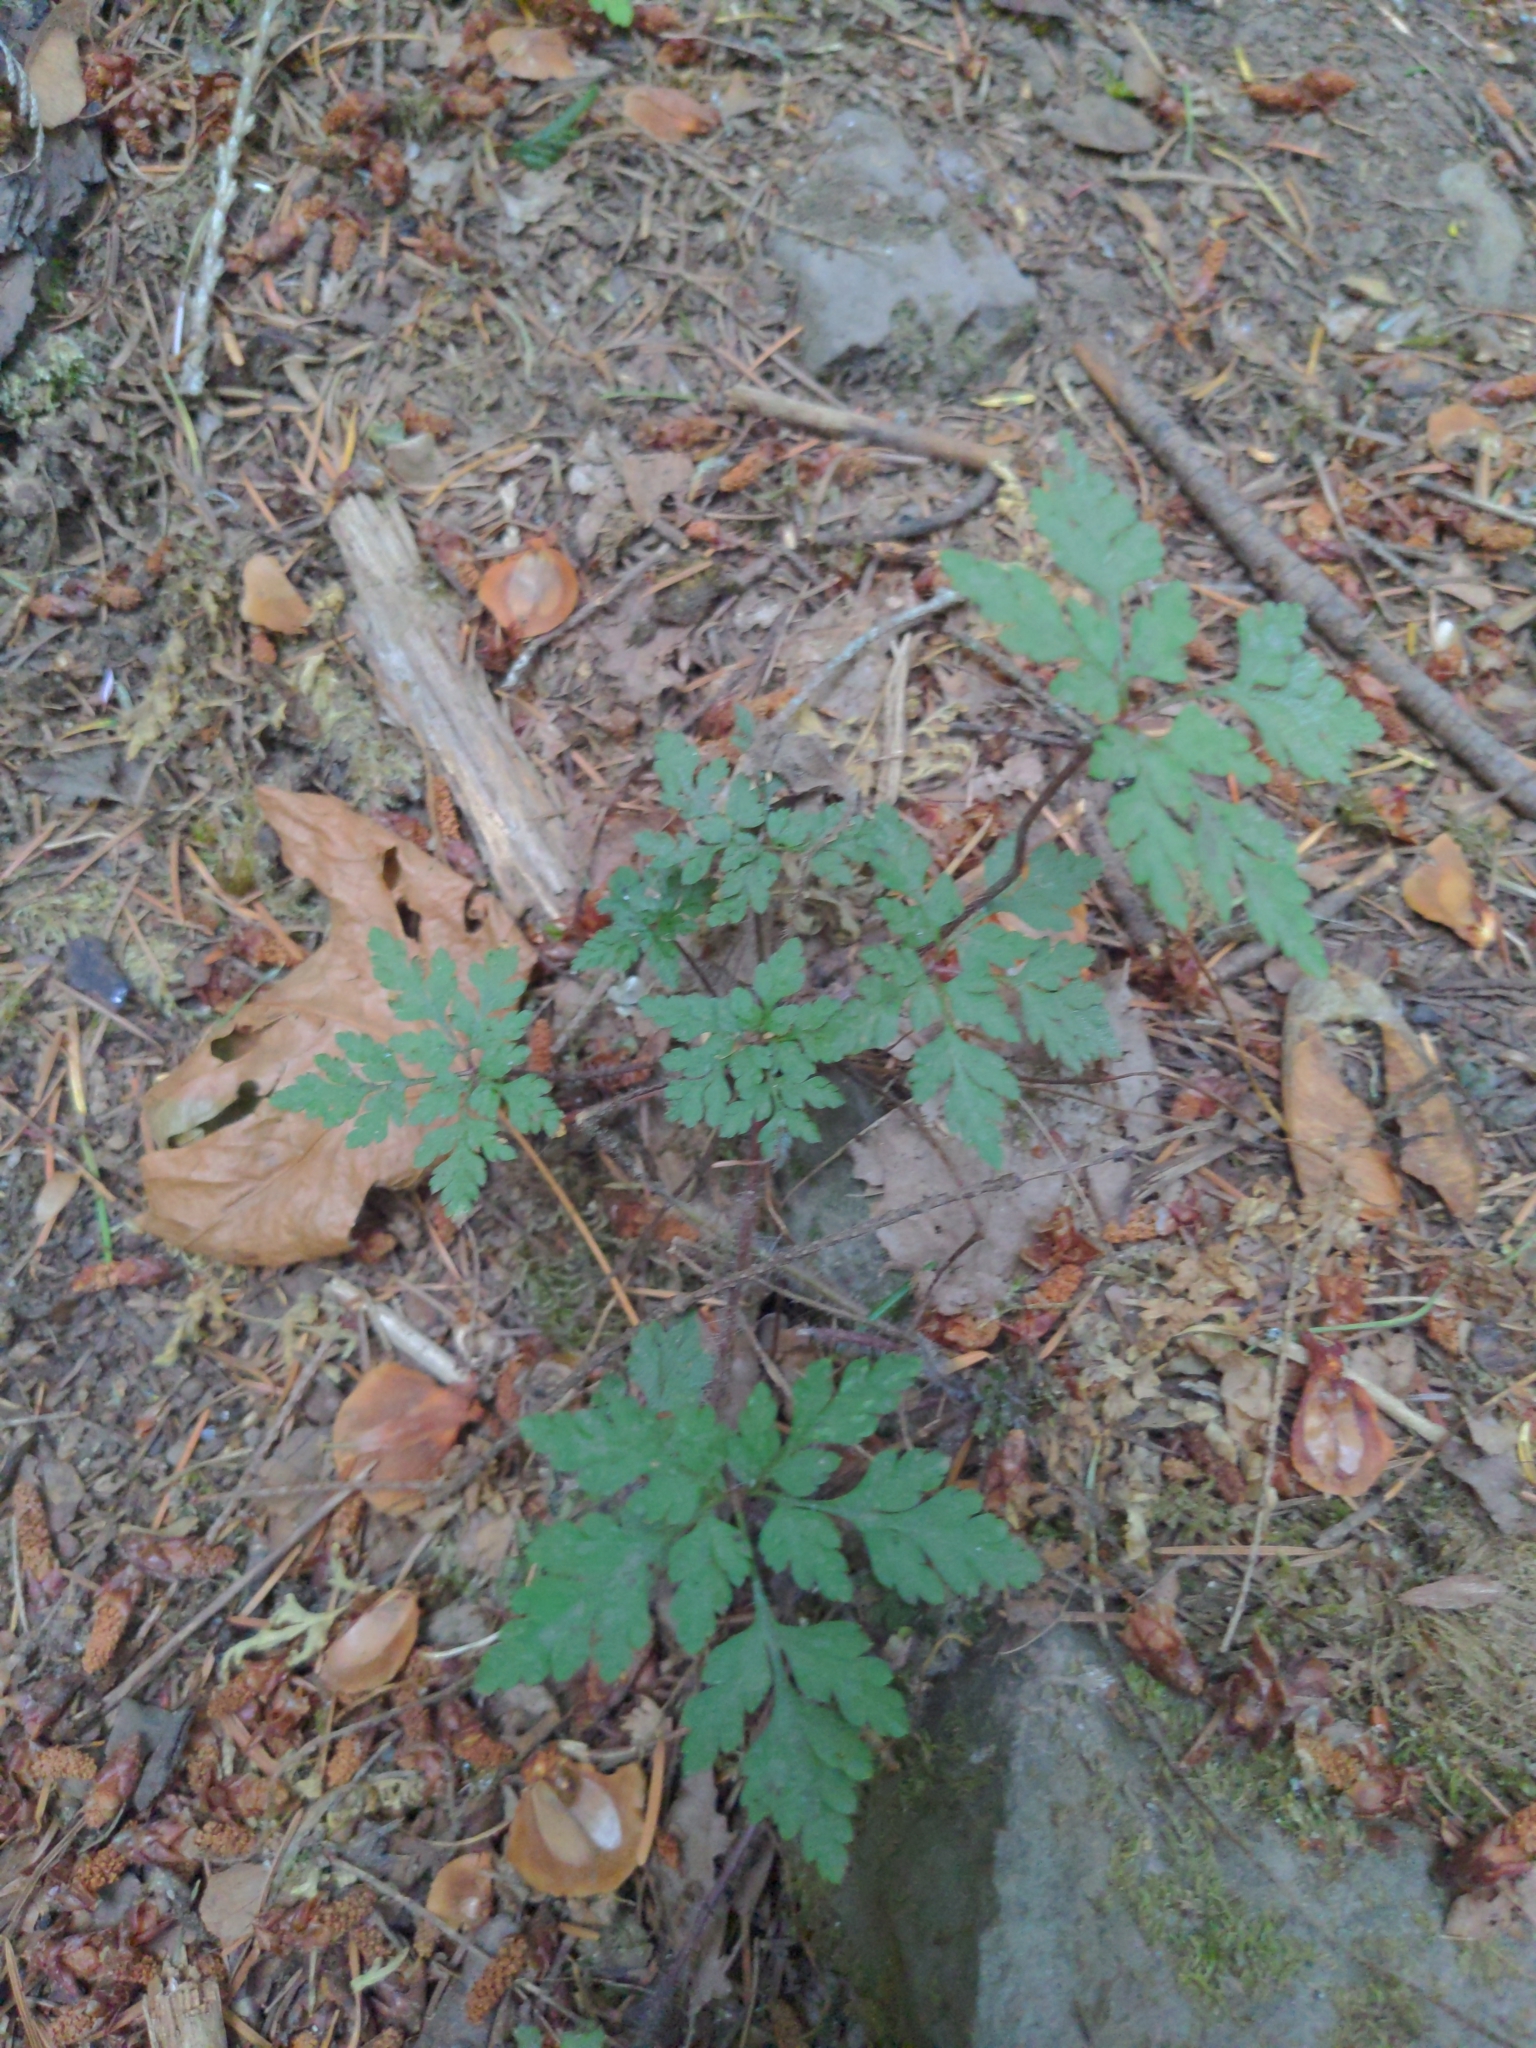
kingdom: Plantae
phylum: Tracheophyta
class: Magnoliopsida
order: Geraniales
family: Geraniaceae
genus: Geranium
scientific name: Geranium robertianum
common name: Herb-robert
